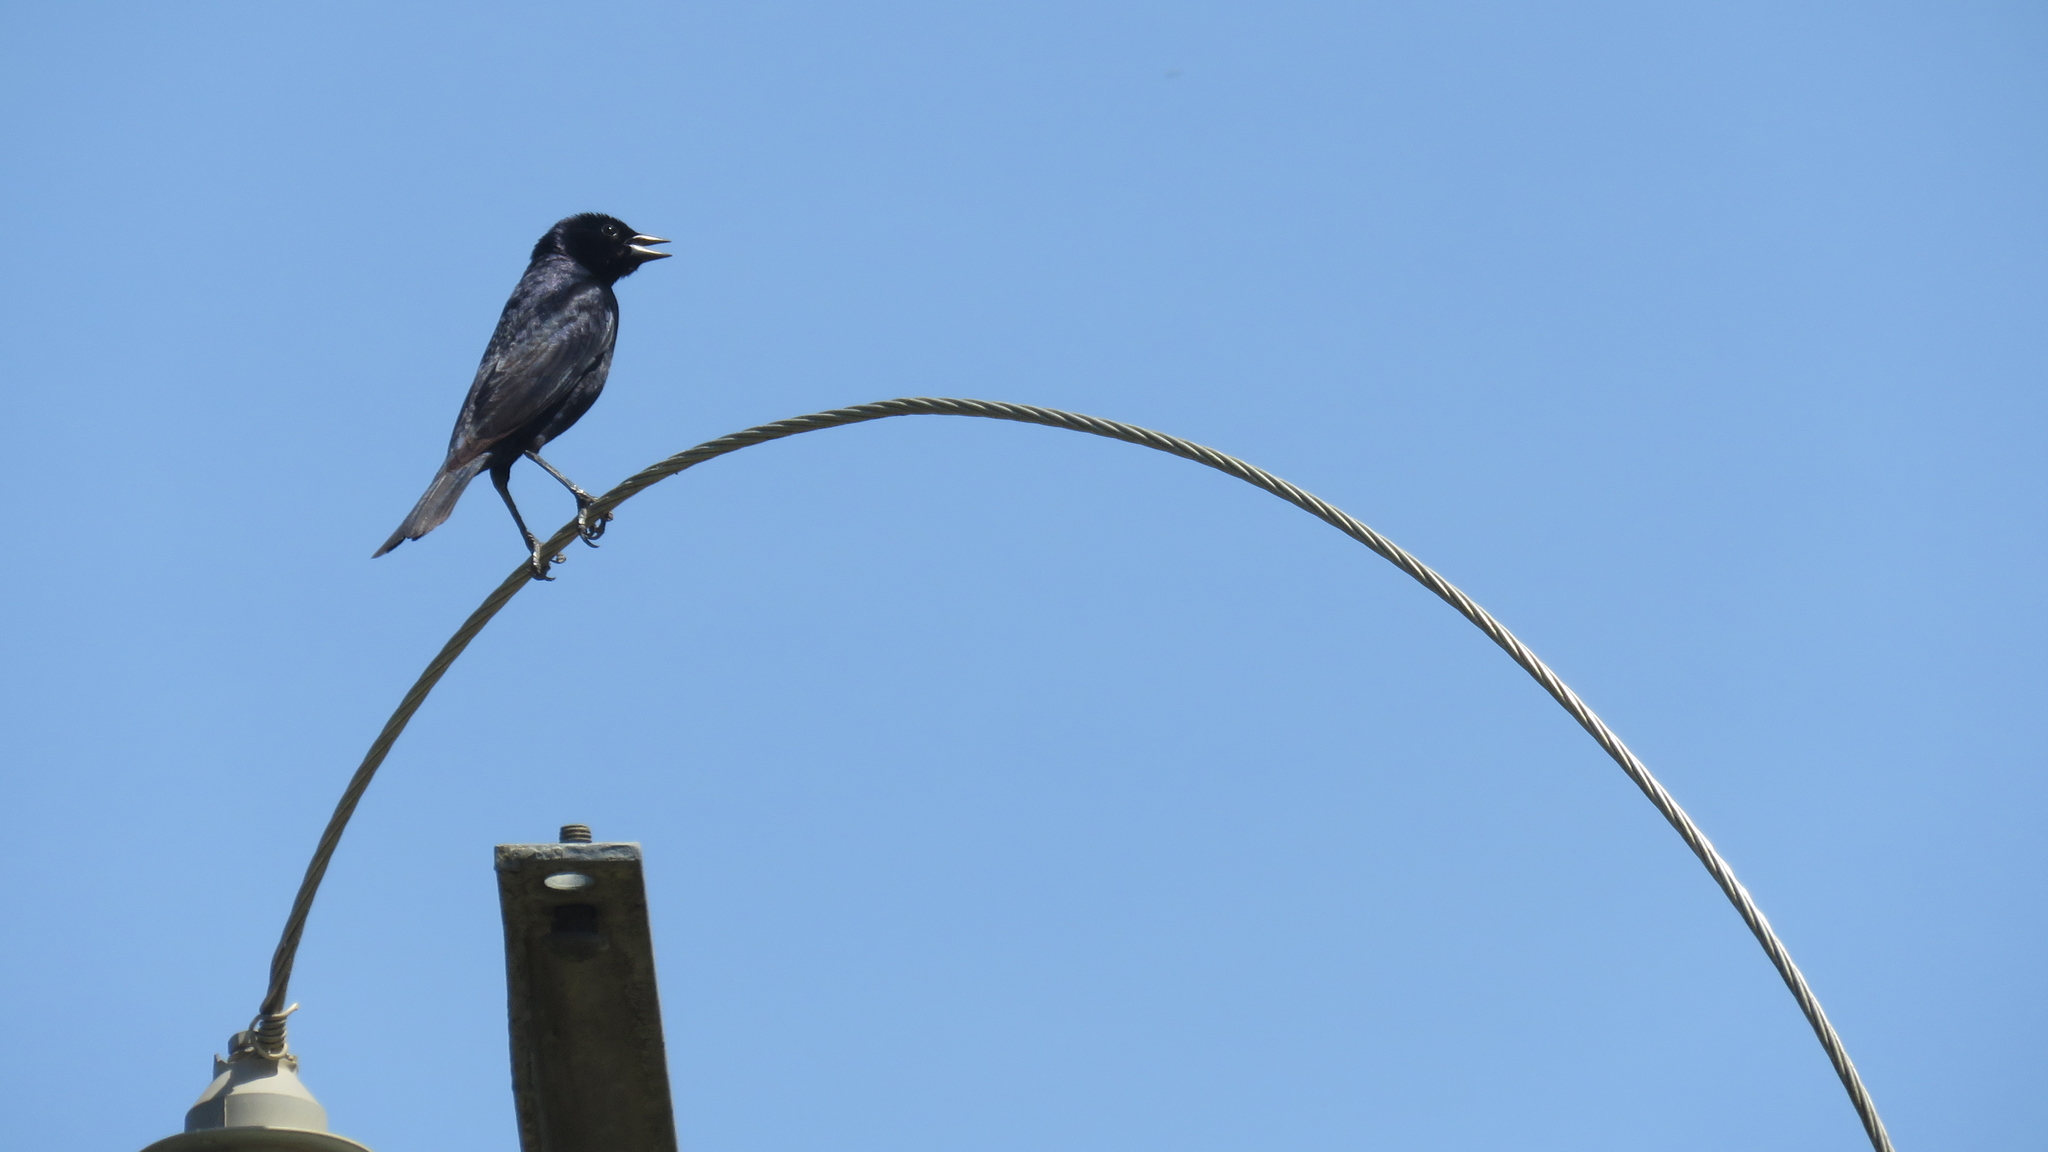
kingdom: Animalia
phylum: Chordata
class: Aves
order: Passeriformes
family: Icteridae
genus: Molothrus
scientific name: Molothrus bonariensis
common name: Shiny cowbird
